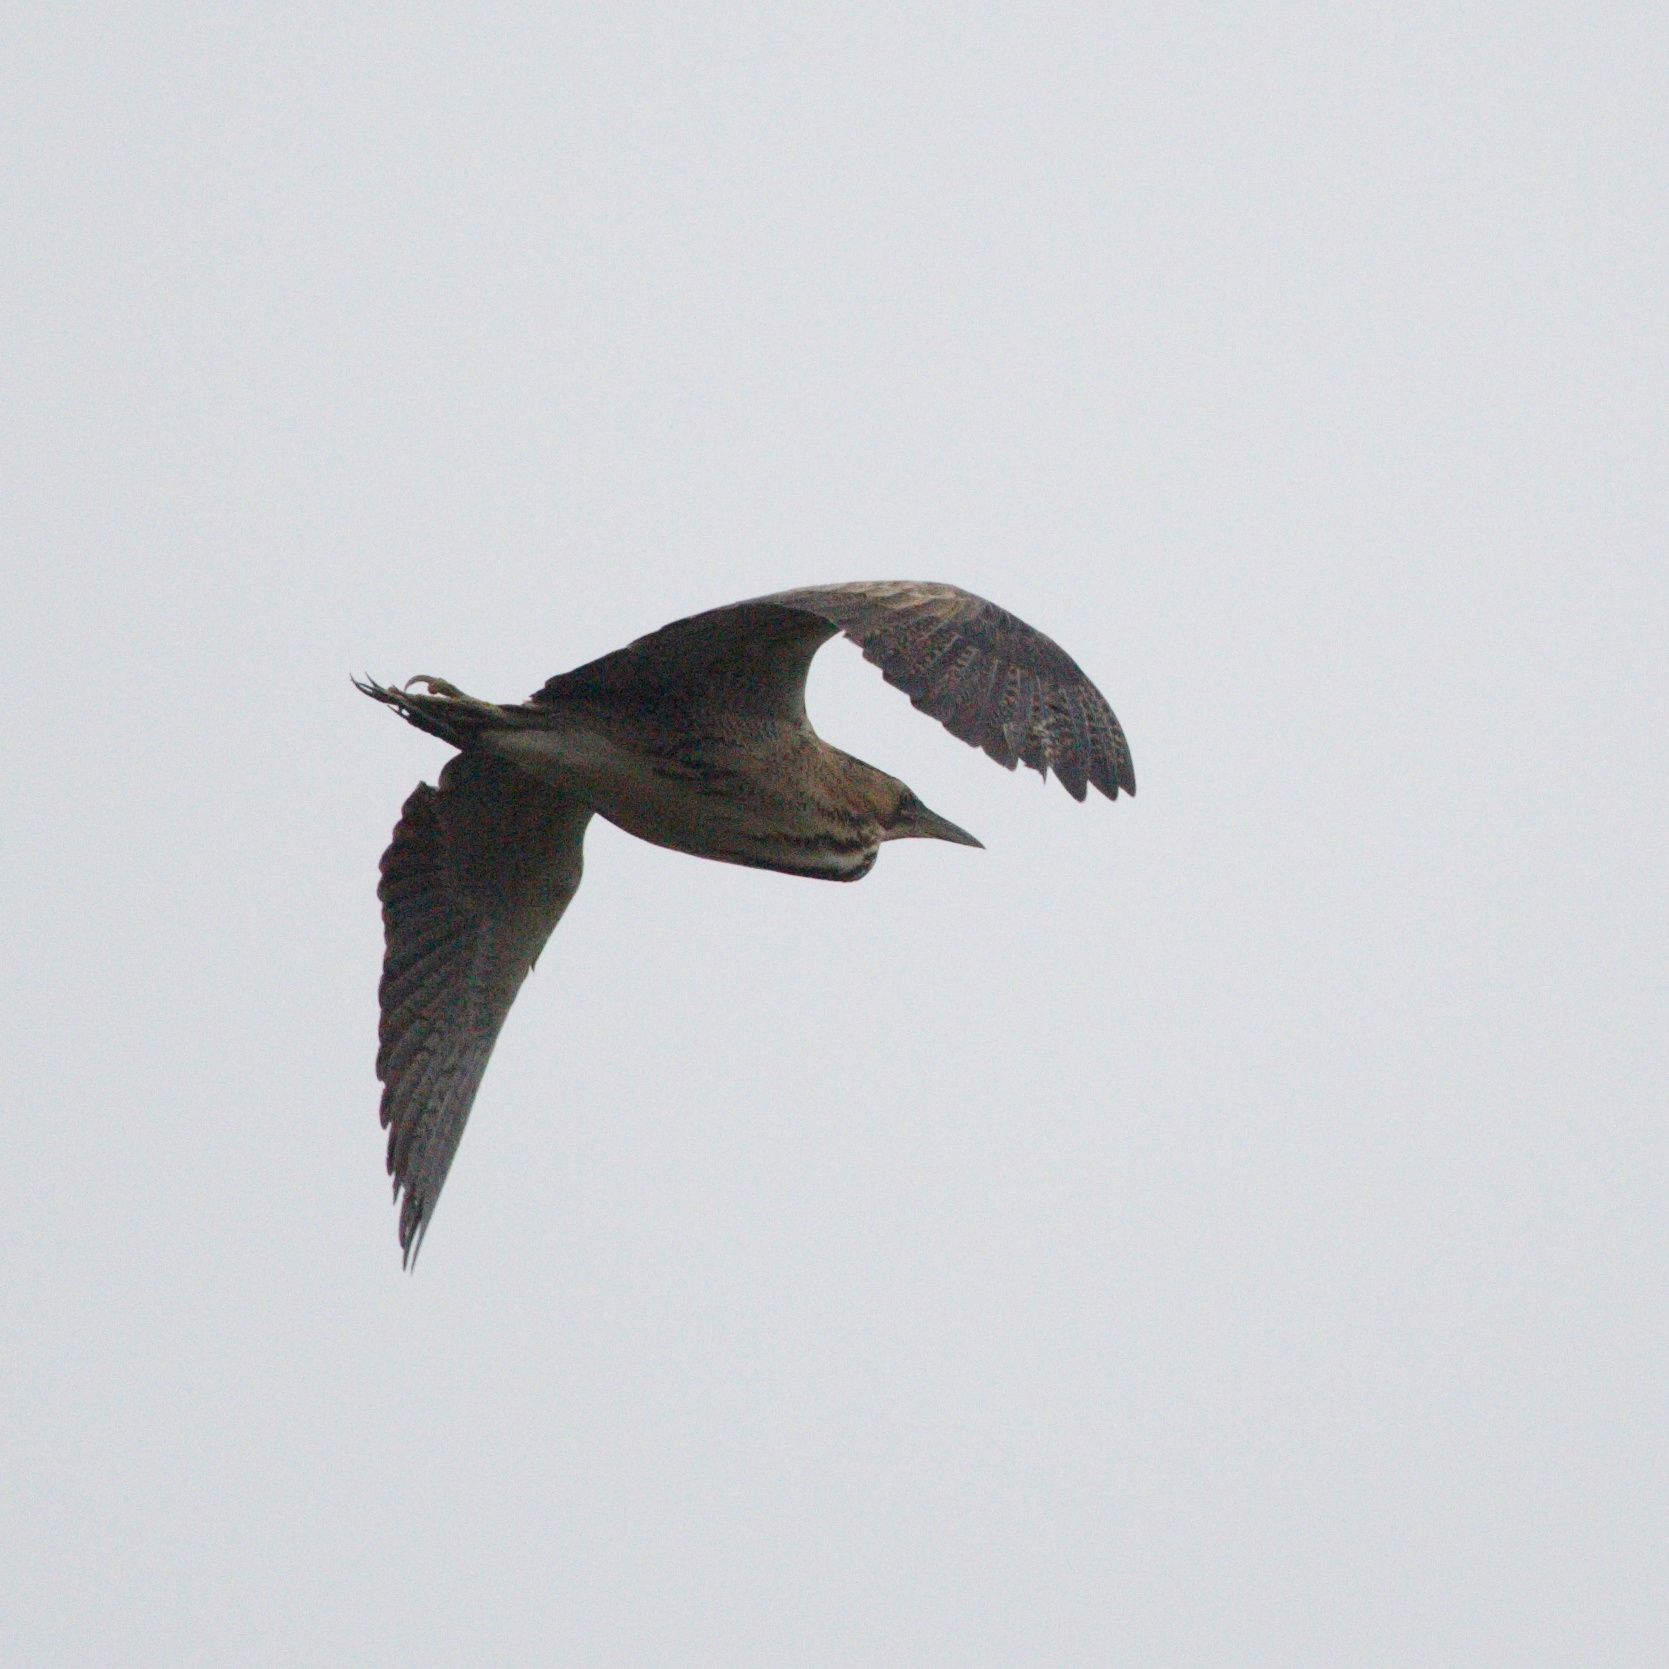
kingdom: Animalia
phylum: Chordata
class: Aves
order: Pelecaniformes
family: Ardeidae
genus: Botaurus
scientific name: Botaurus stellaris
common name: Eurasian bittern
